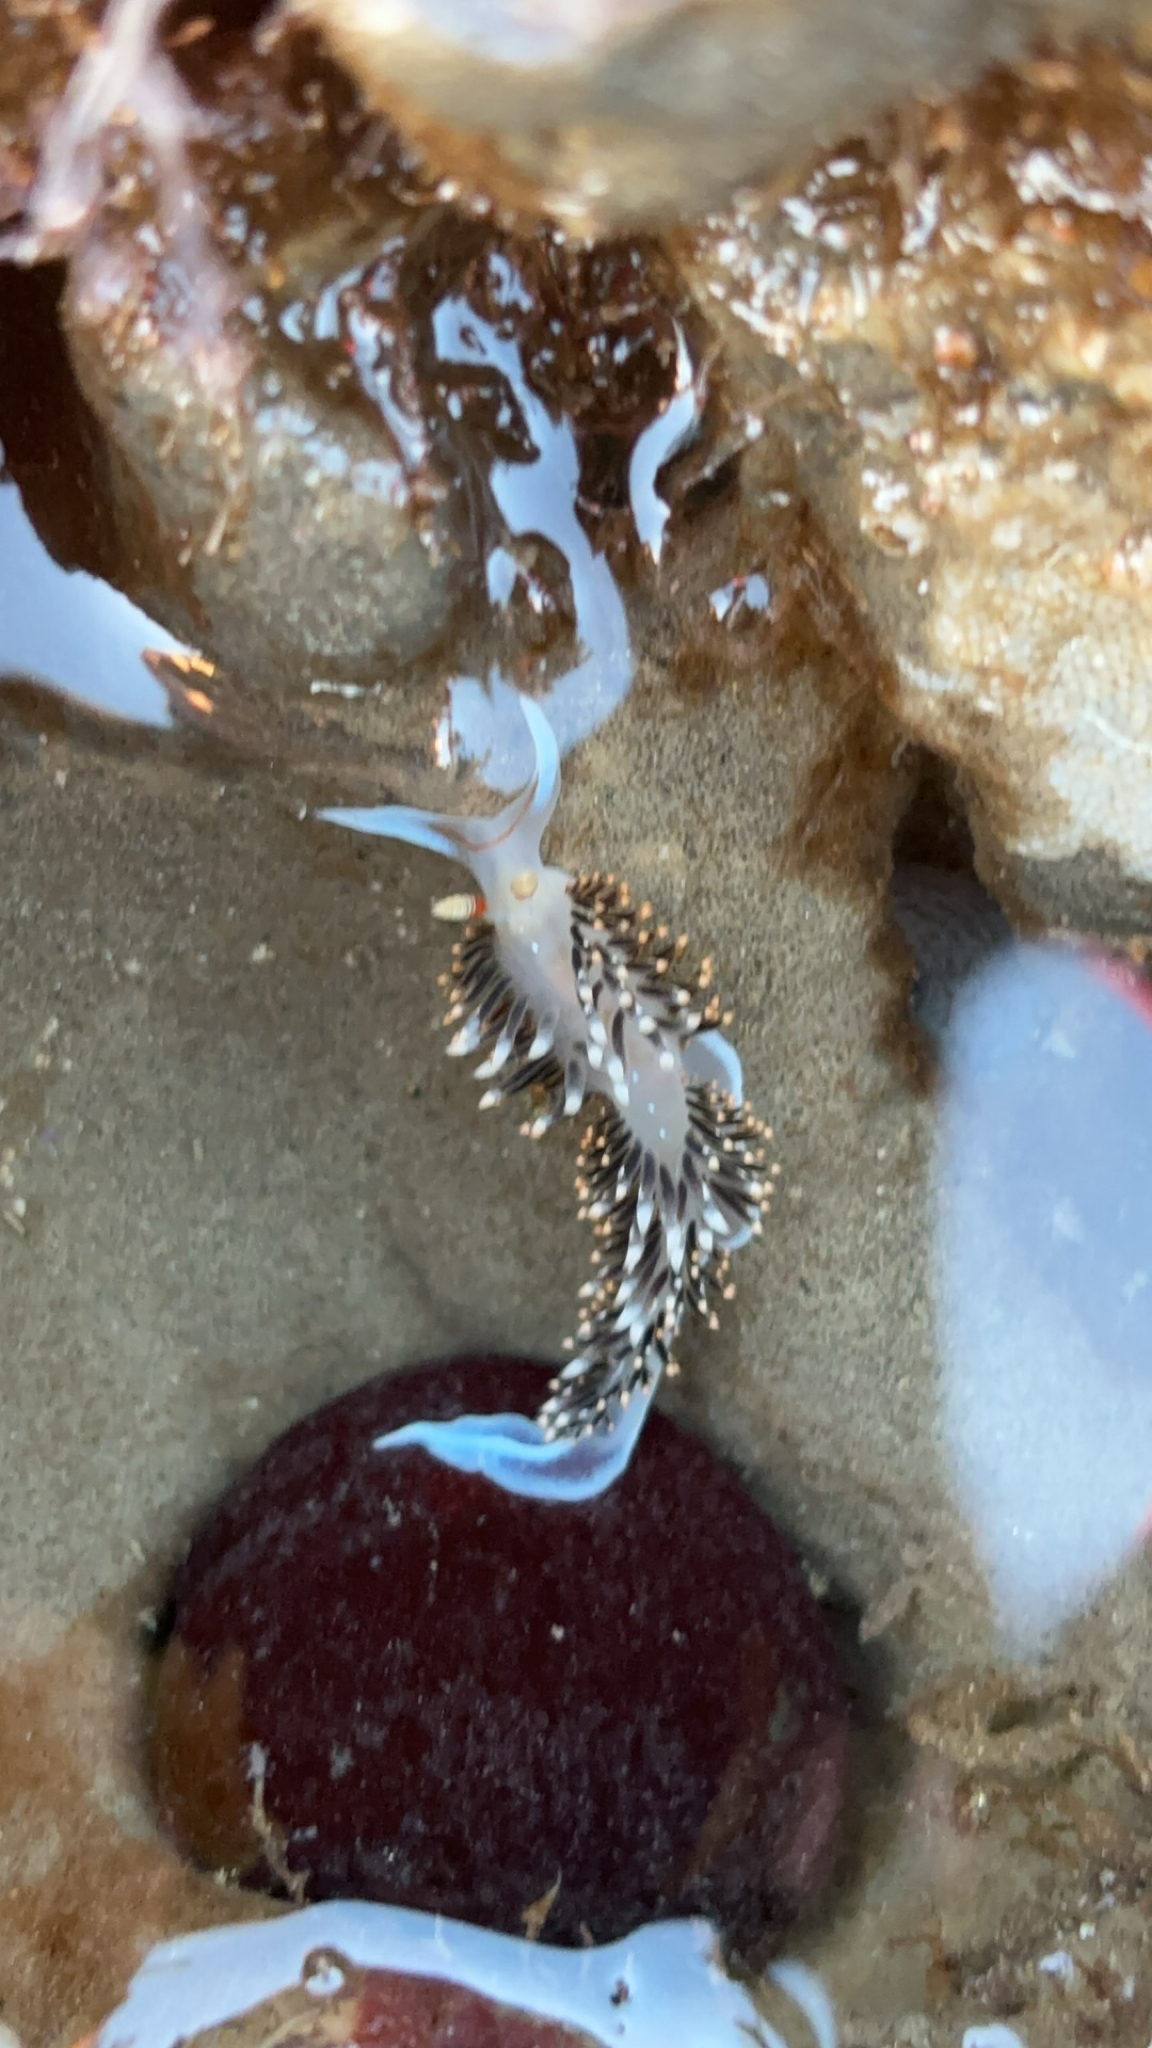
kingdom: Animalia
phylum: Mollusca
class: Gastropoda
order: Nudibranchia
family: Facelinidae
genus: Phidiana
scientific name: Phidiana hiltoni
